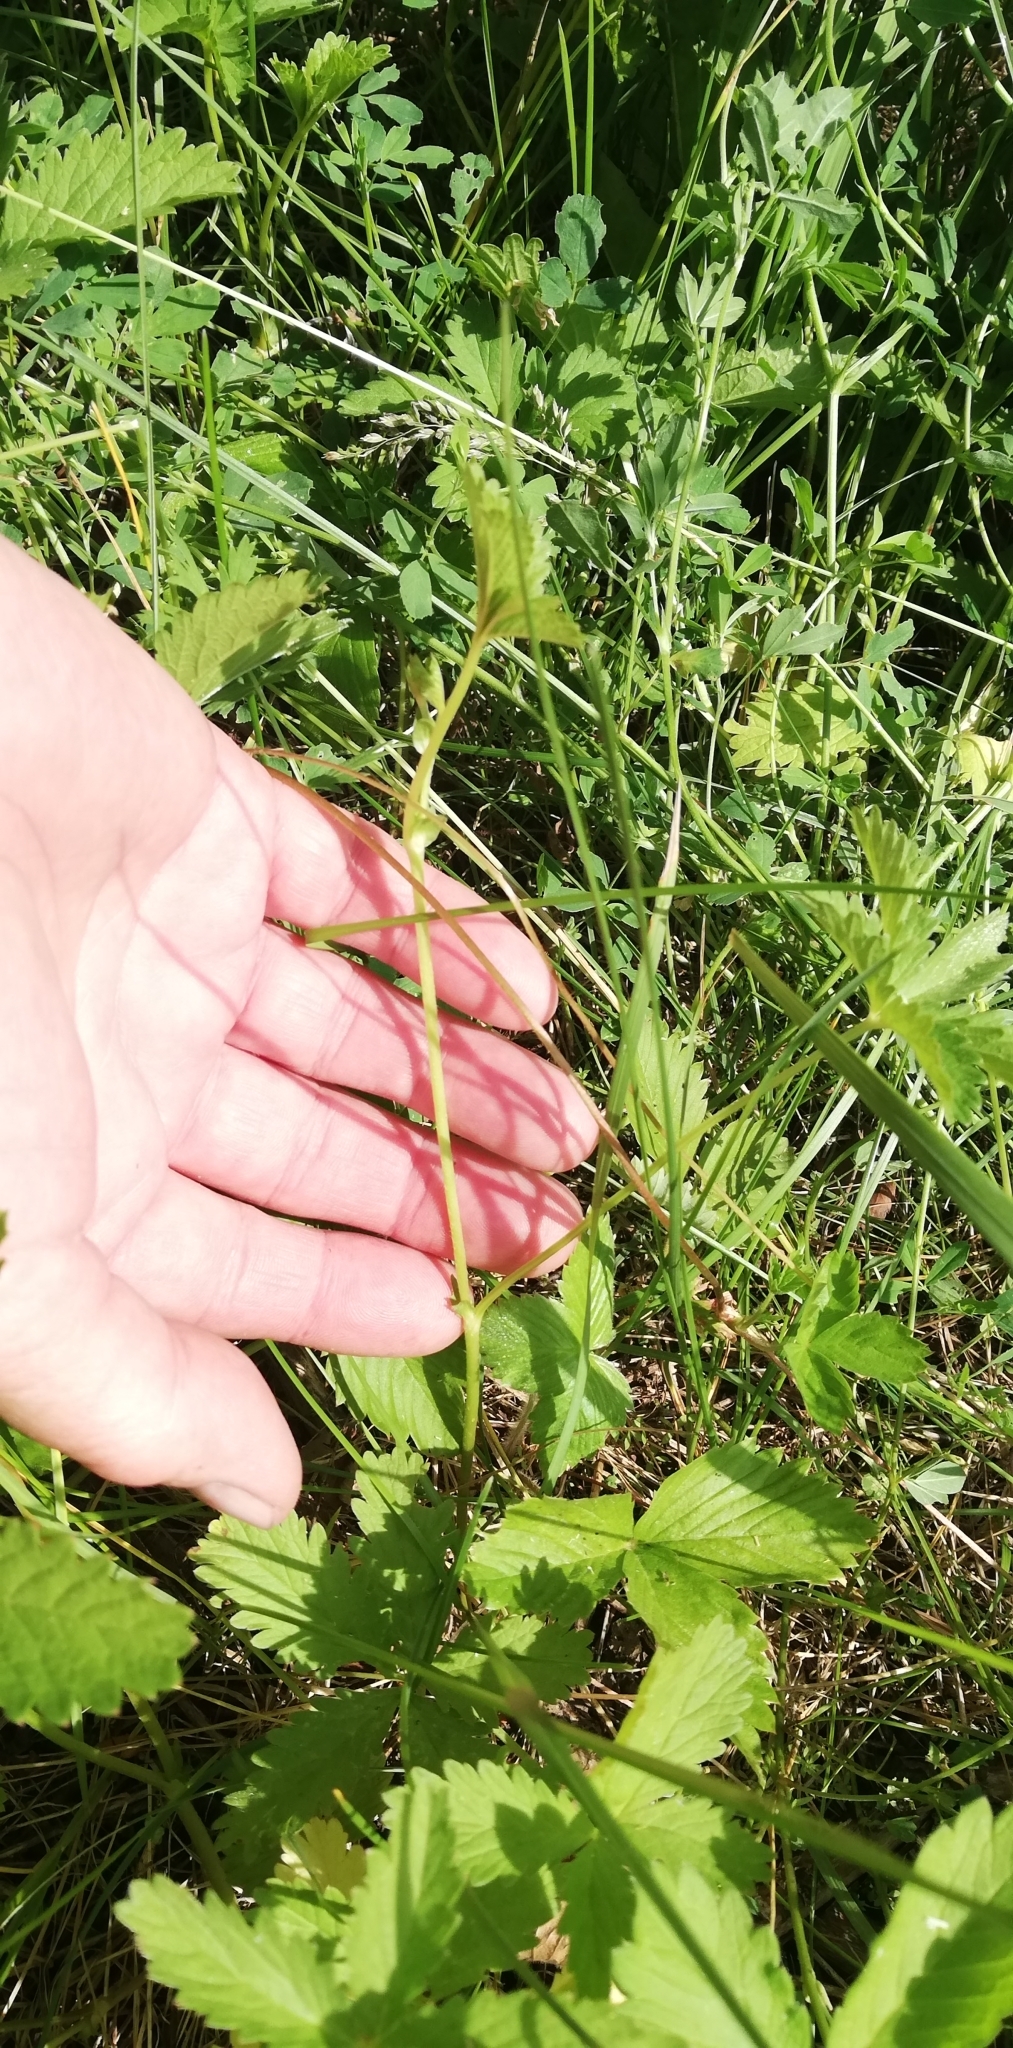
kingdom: Plantae
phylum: Tracheophyta
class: Magnoliopsida
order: Rosales
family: Rosaceae
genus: Potentilla
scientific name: Potentilla reptans
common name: Creeping cinquefoil
